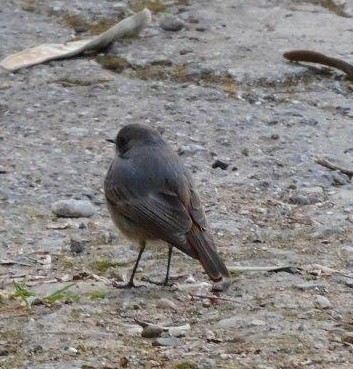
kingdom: Animalia
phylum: Chordata
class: Aves
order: Passeriformes
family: Muscicapidae
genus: Phoenicurus
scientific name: Phoenicurus ochruros
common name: Black redstart
